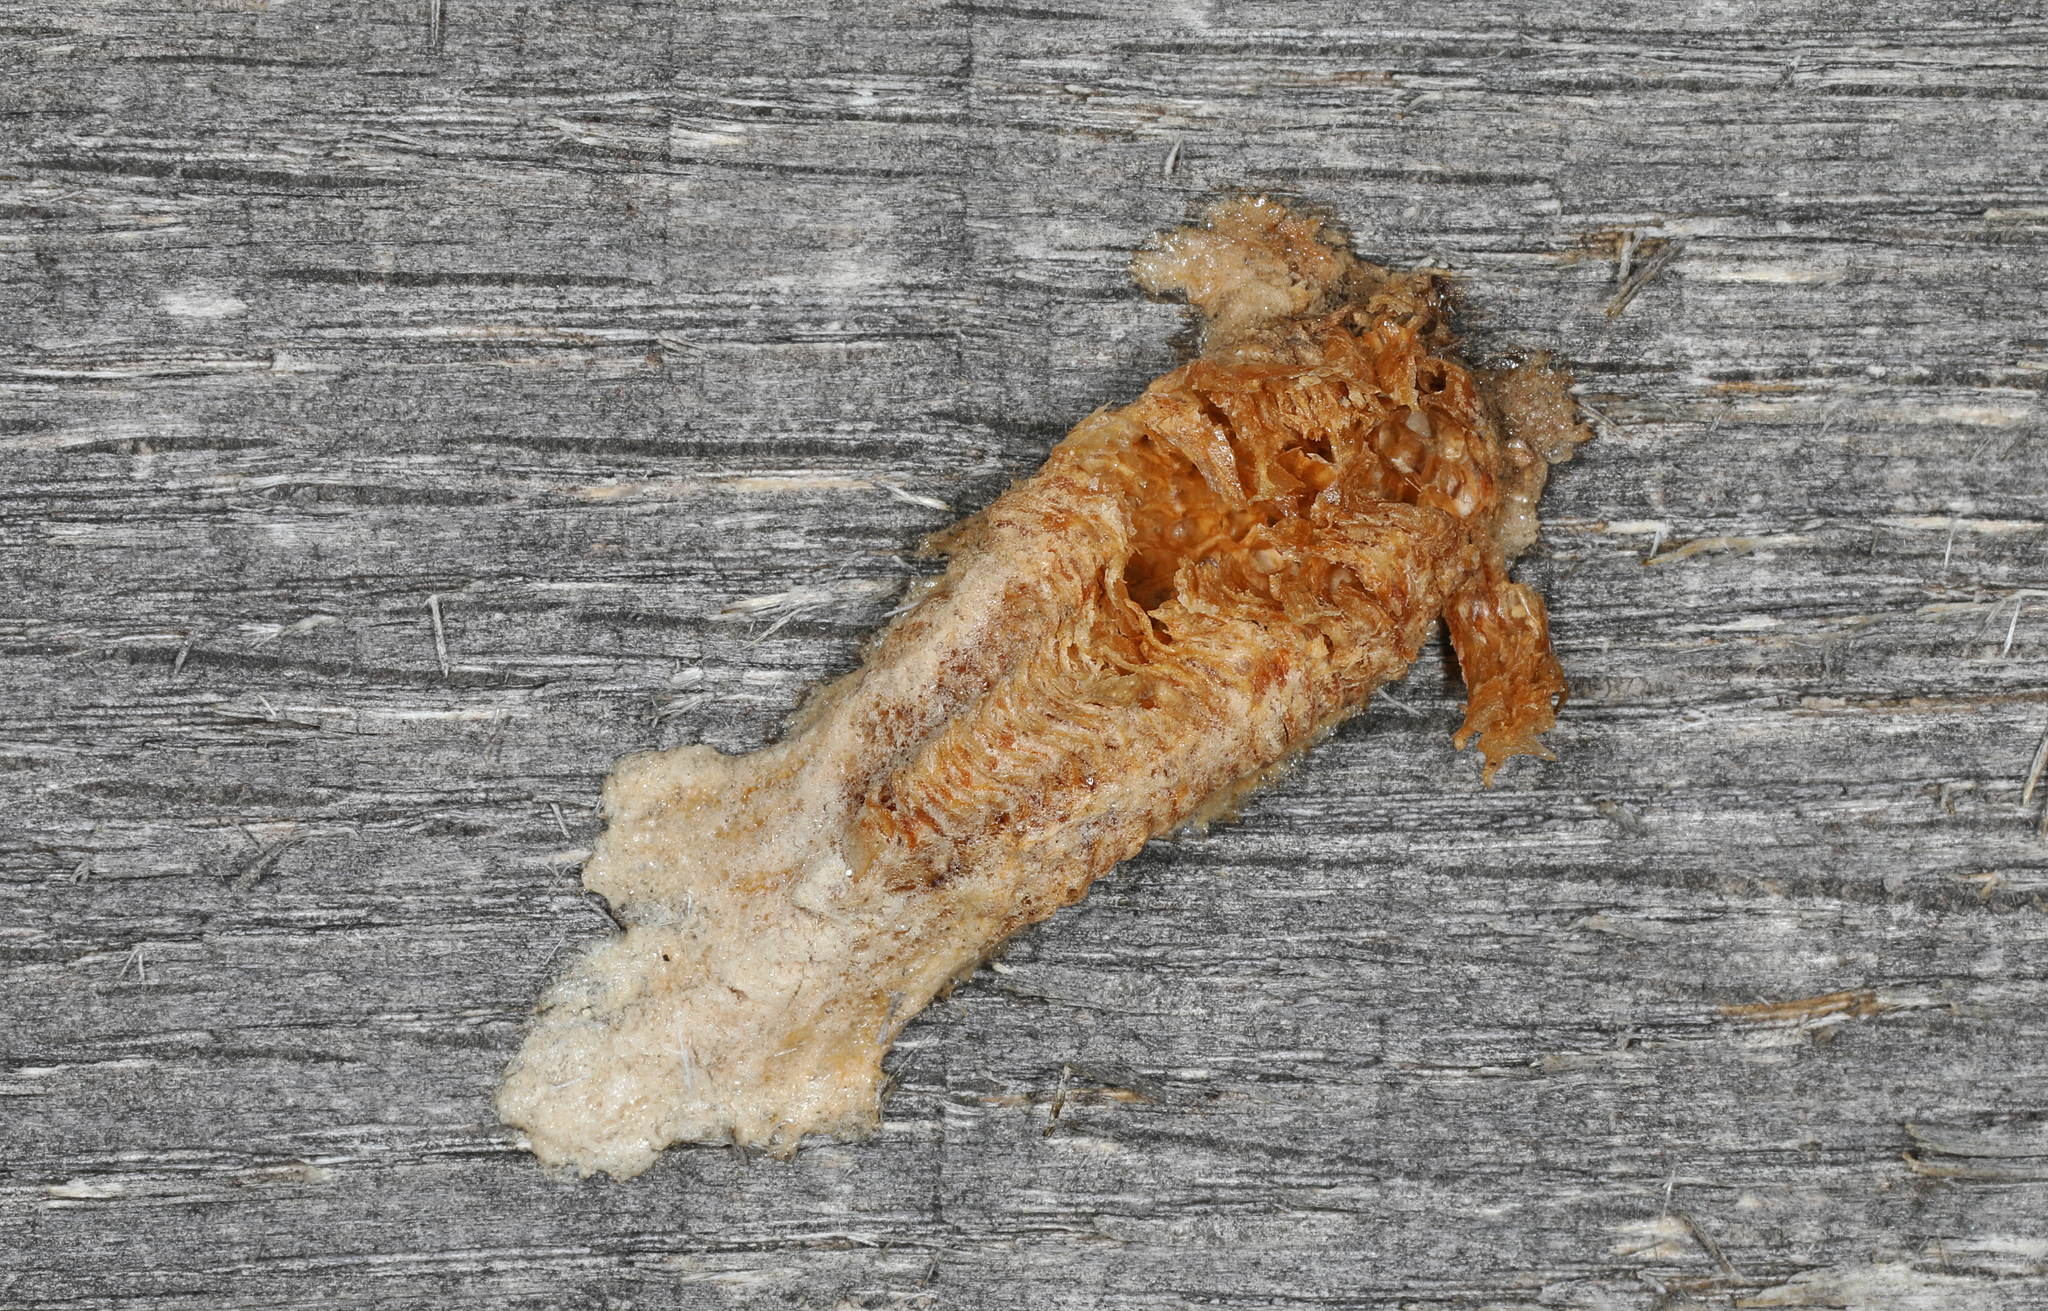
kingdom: Animalia
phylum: Arthropoda
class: Insecta
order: Mantodea
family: Mantidae
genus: Tenodera
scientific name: Tenodera angustipennis
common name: Asian mantis
